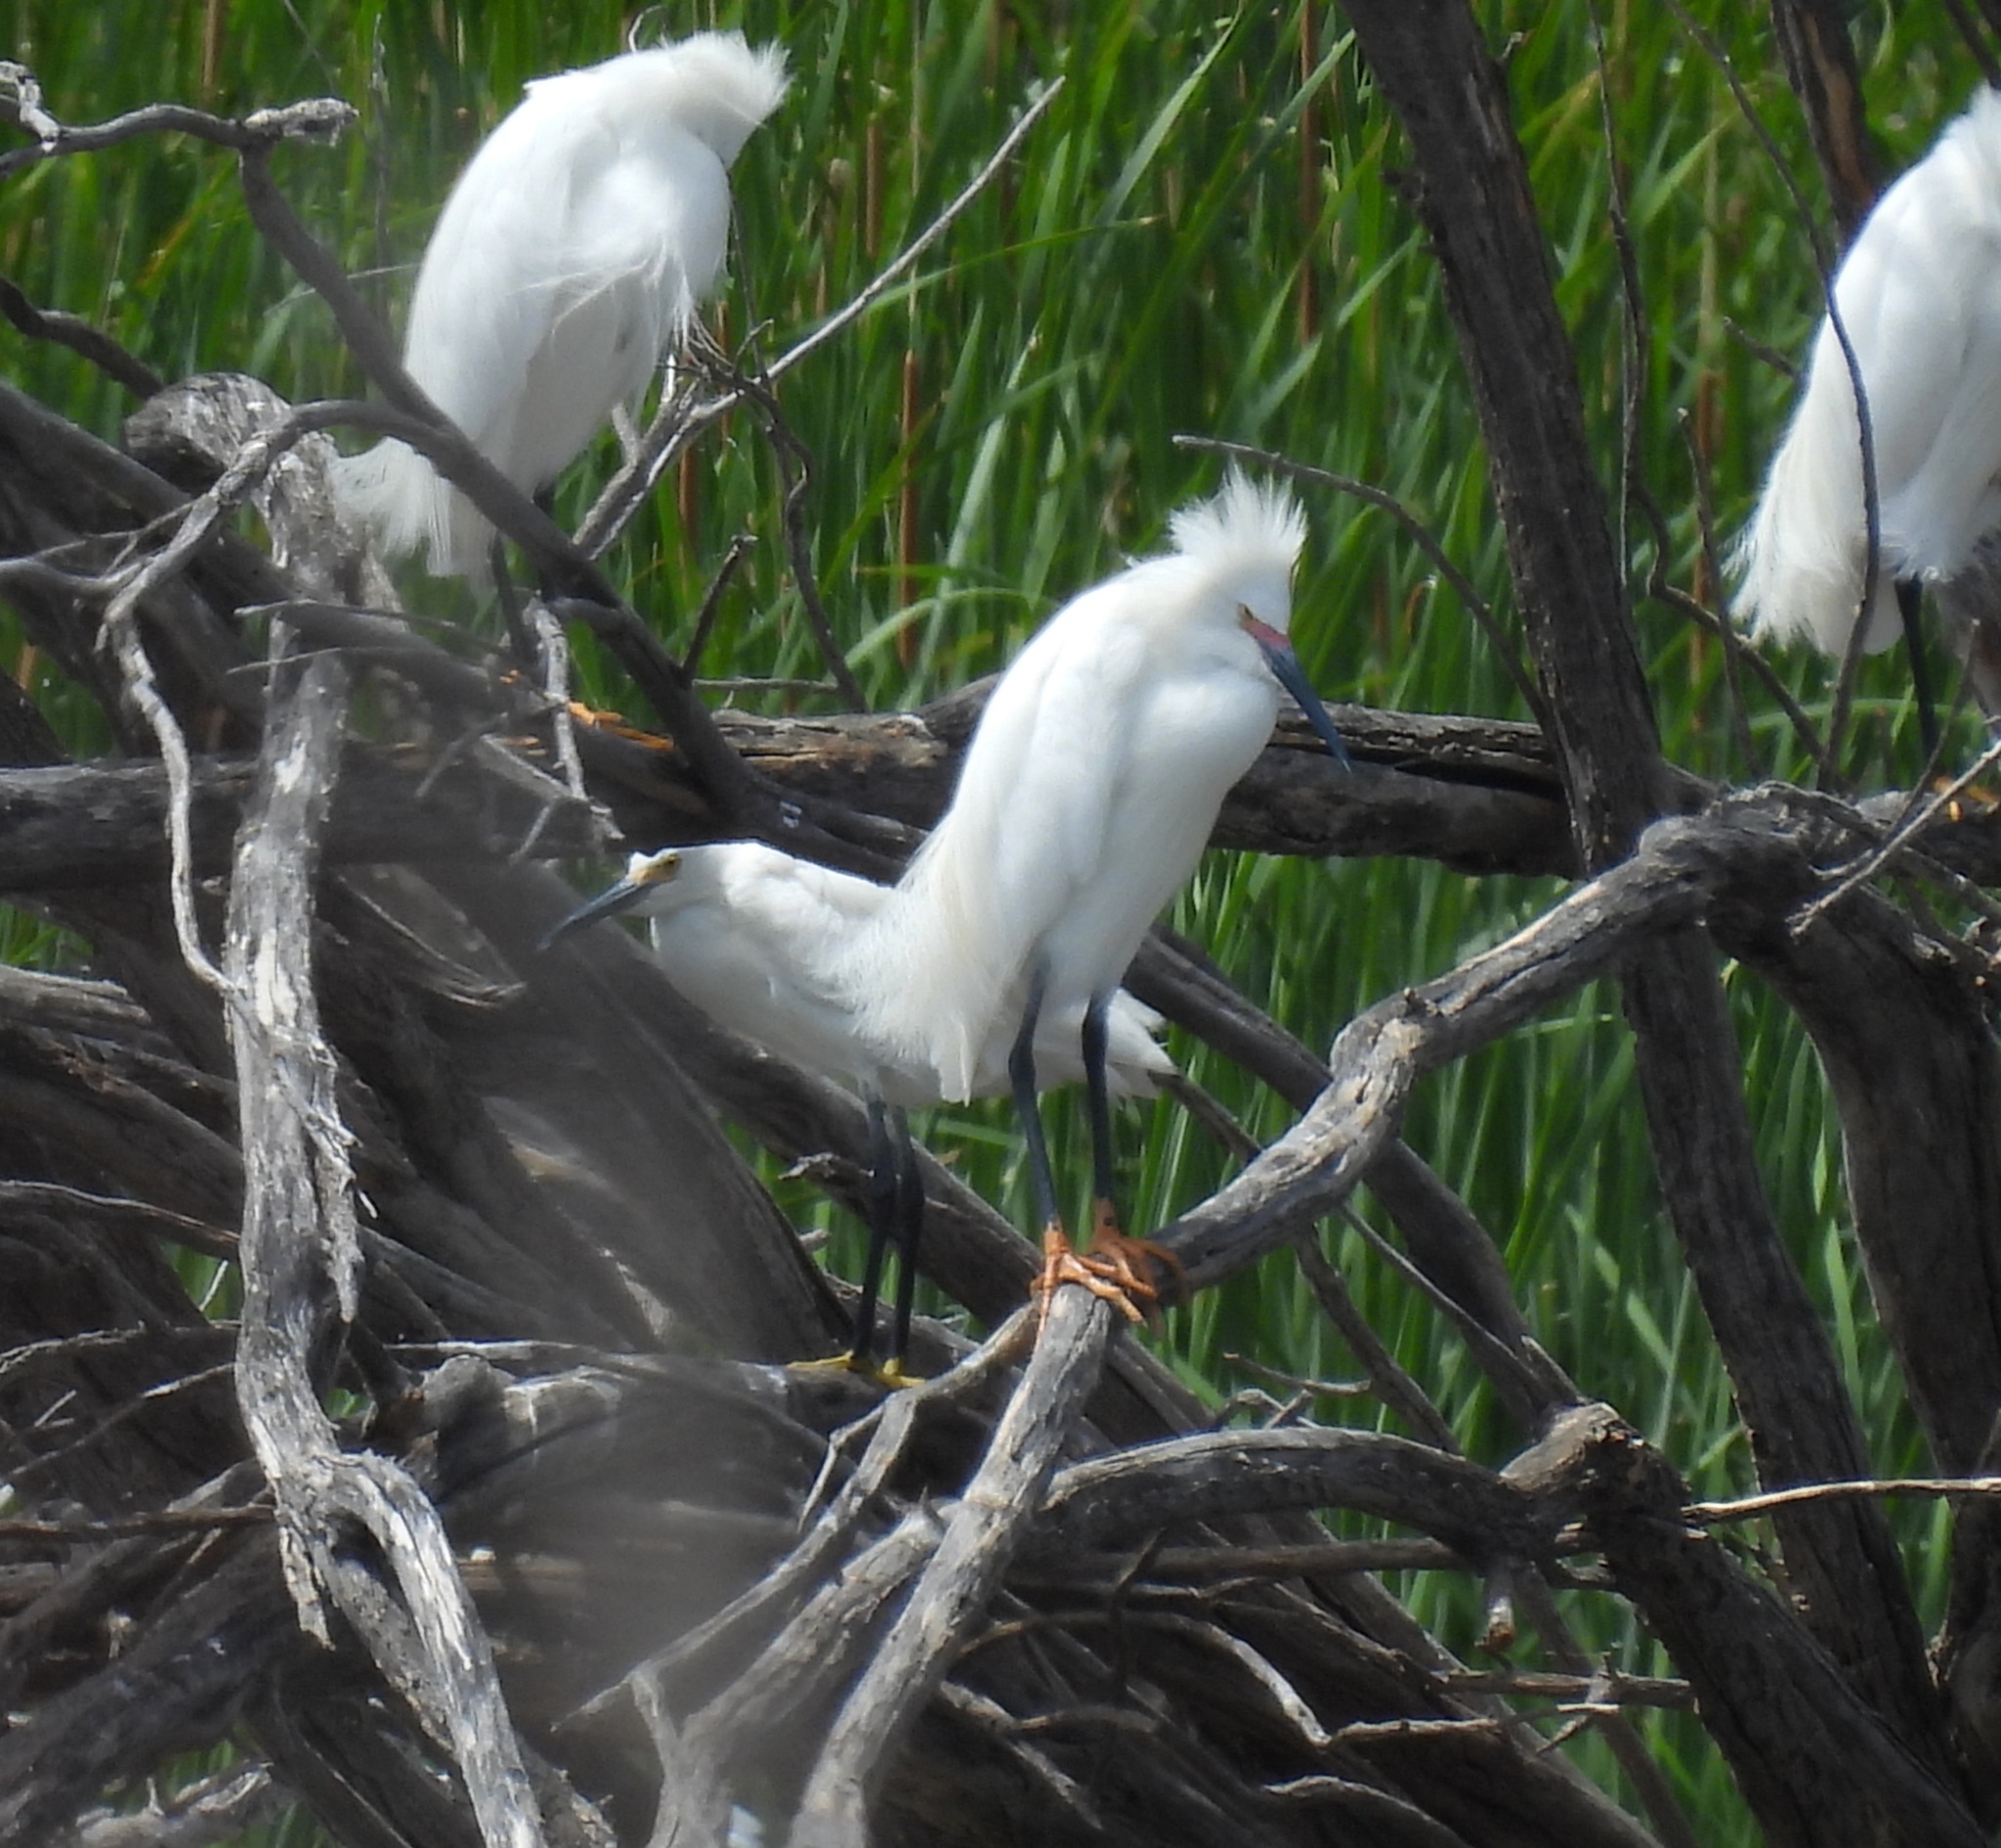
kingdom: Animalia
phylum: Chordata
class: Aves
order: Pelecaniformes
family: Ardeidae
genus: Egretta
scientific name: Egretta thula
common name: Snowy egret
